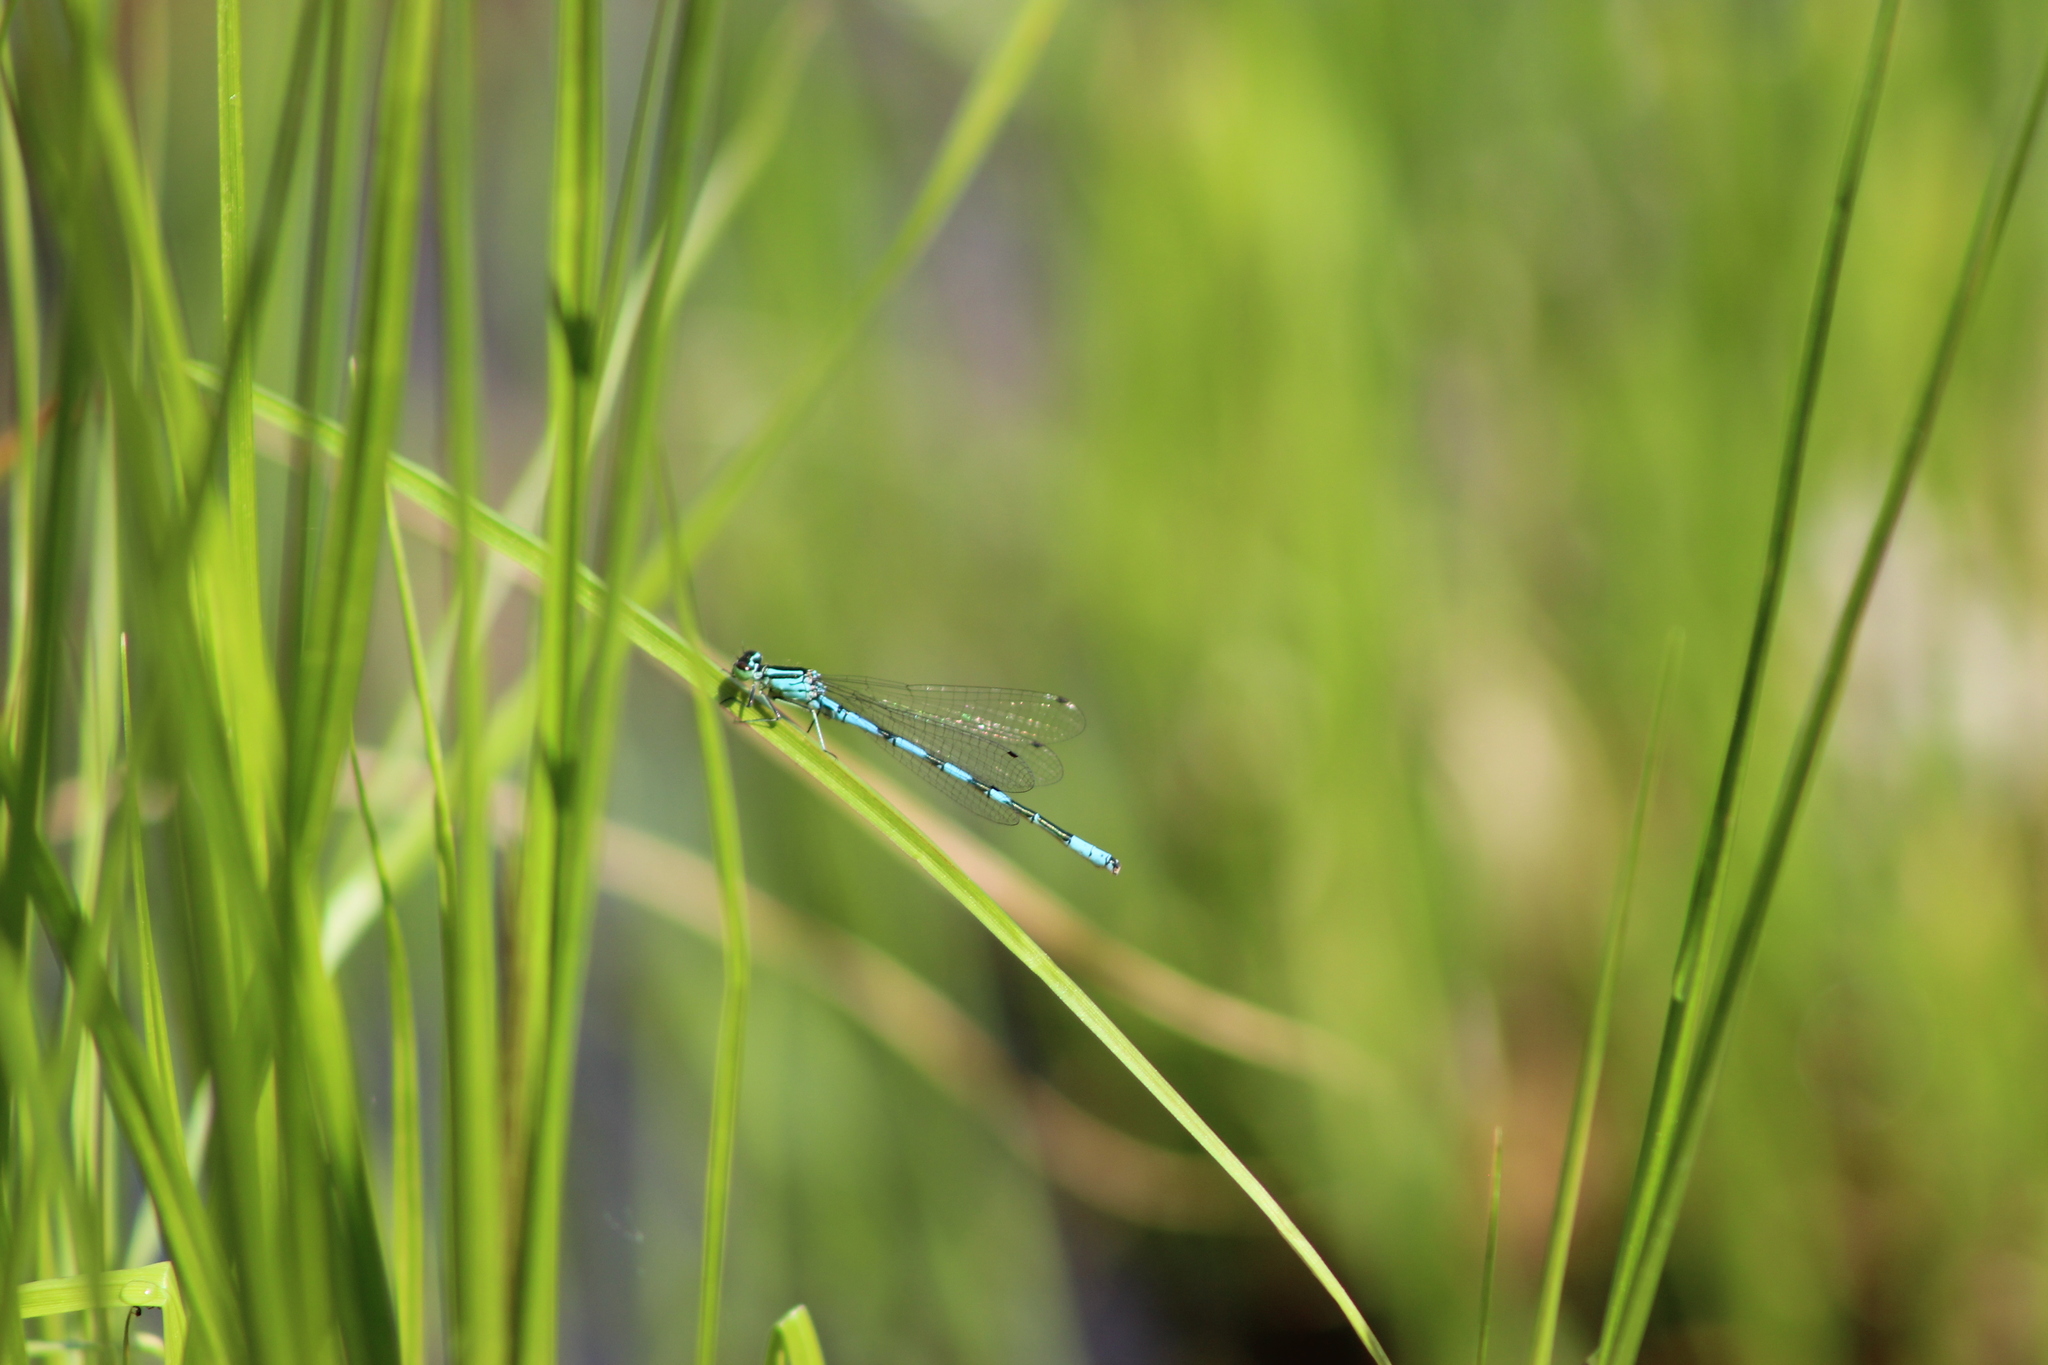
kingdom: Animalia
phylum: Arthropoda
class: Insecta
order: Odonata
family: Coenagrionidae
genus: Coenagrion
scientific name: Coenagrion hastulatum
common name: Spearhead bluet
